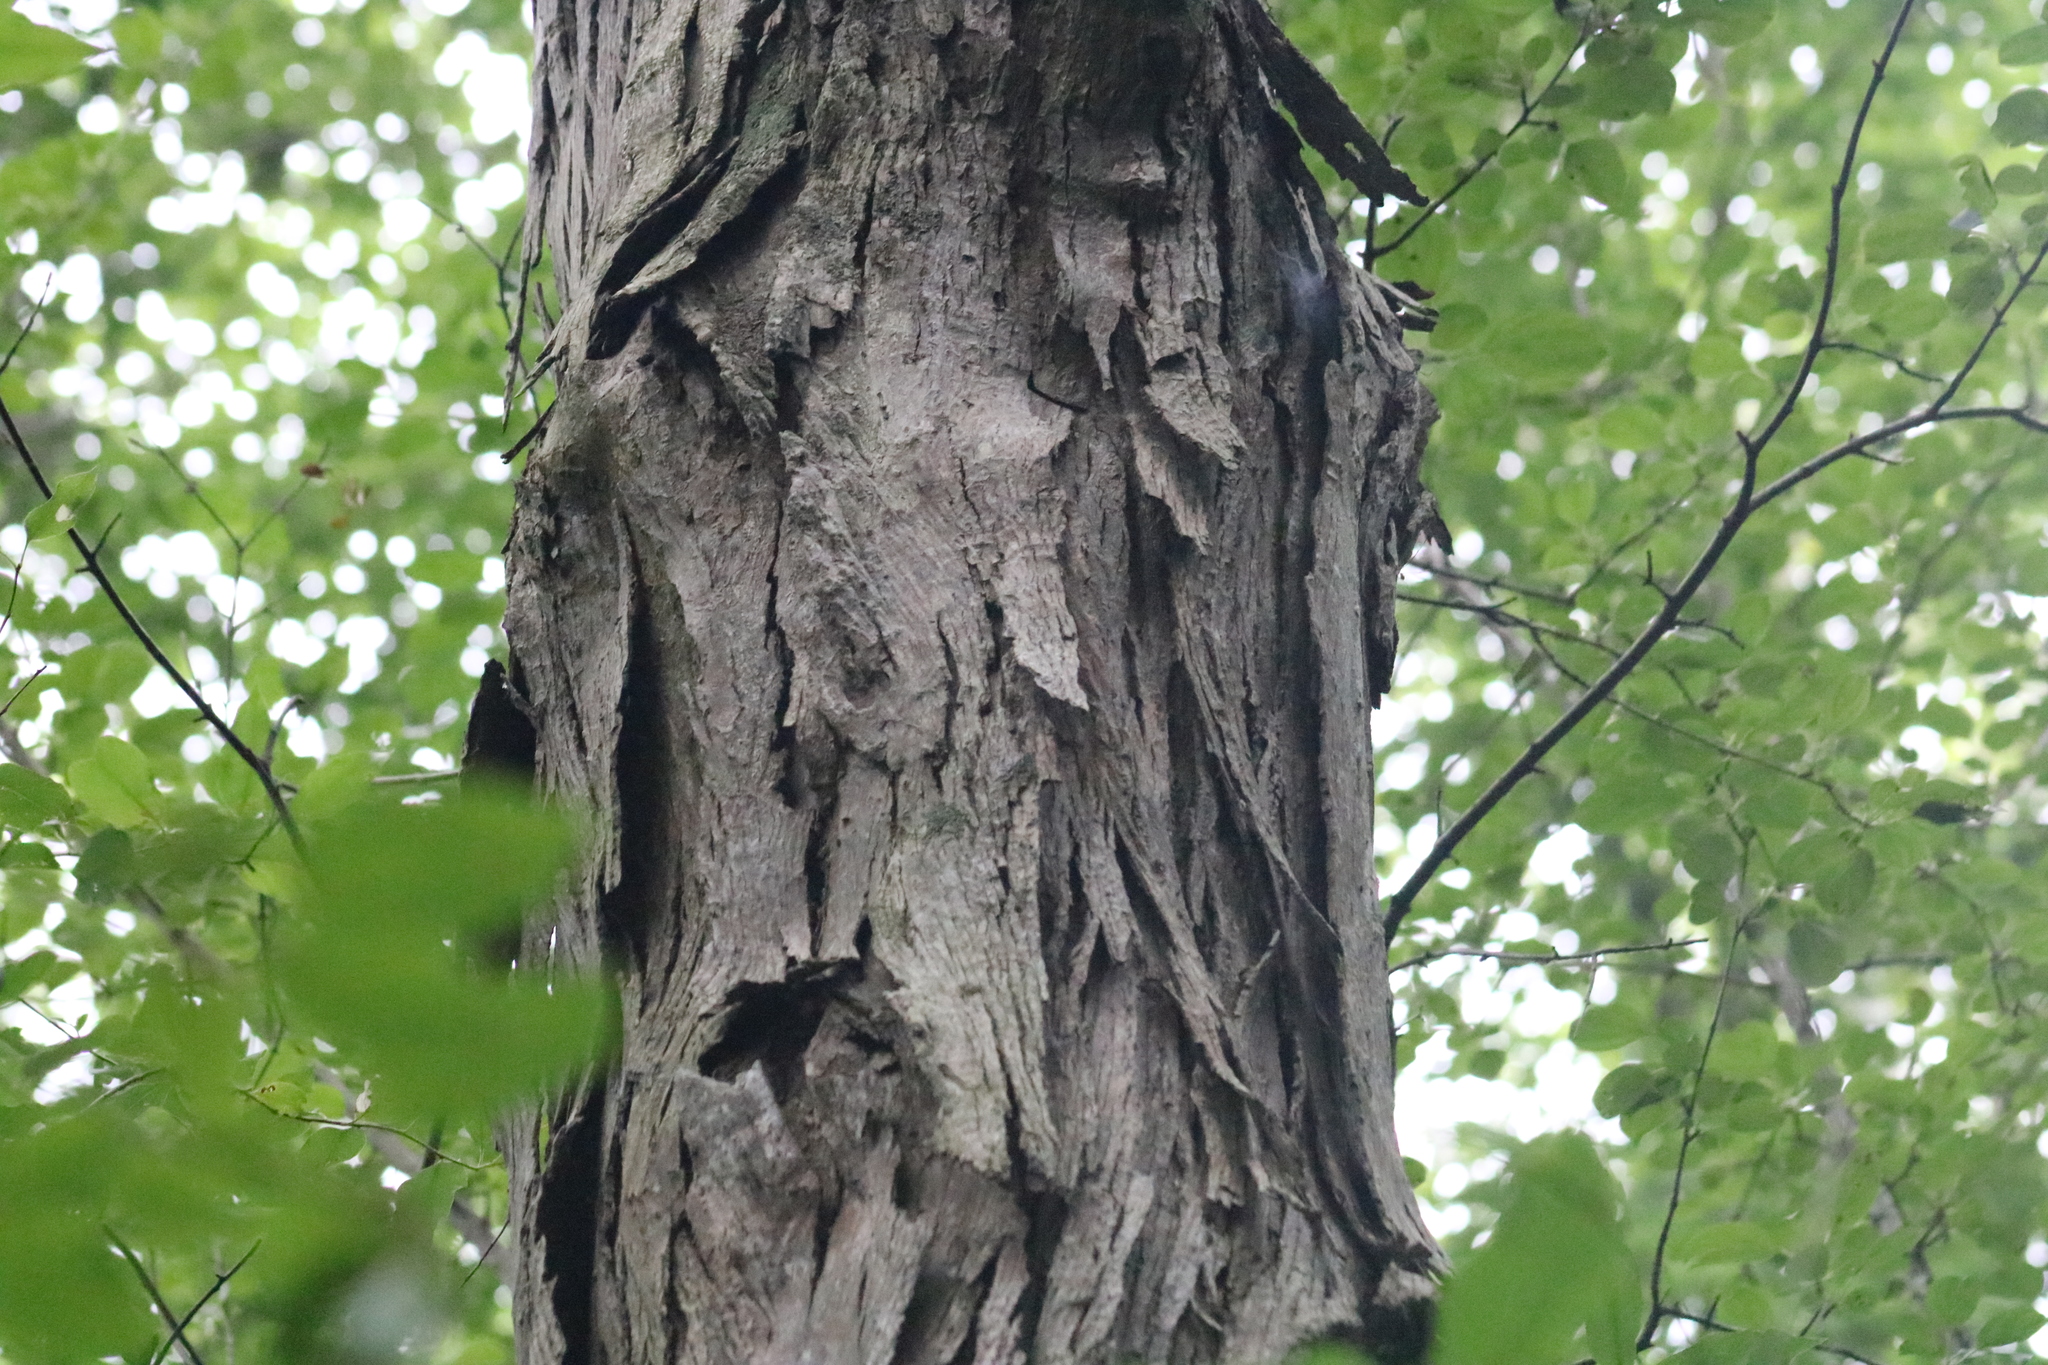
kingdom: Plantae
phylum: Tracheophyta
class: Magnoliopsida
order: Fagales
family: Juglandaceae
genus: Carya
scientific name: Carya ovata
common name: Shagbark hickory
